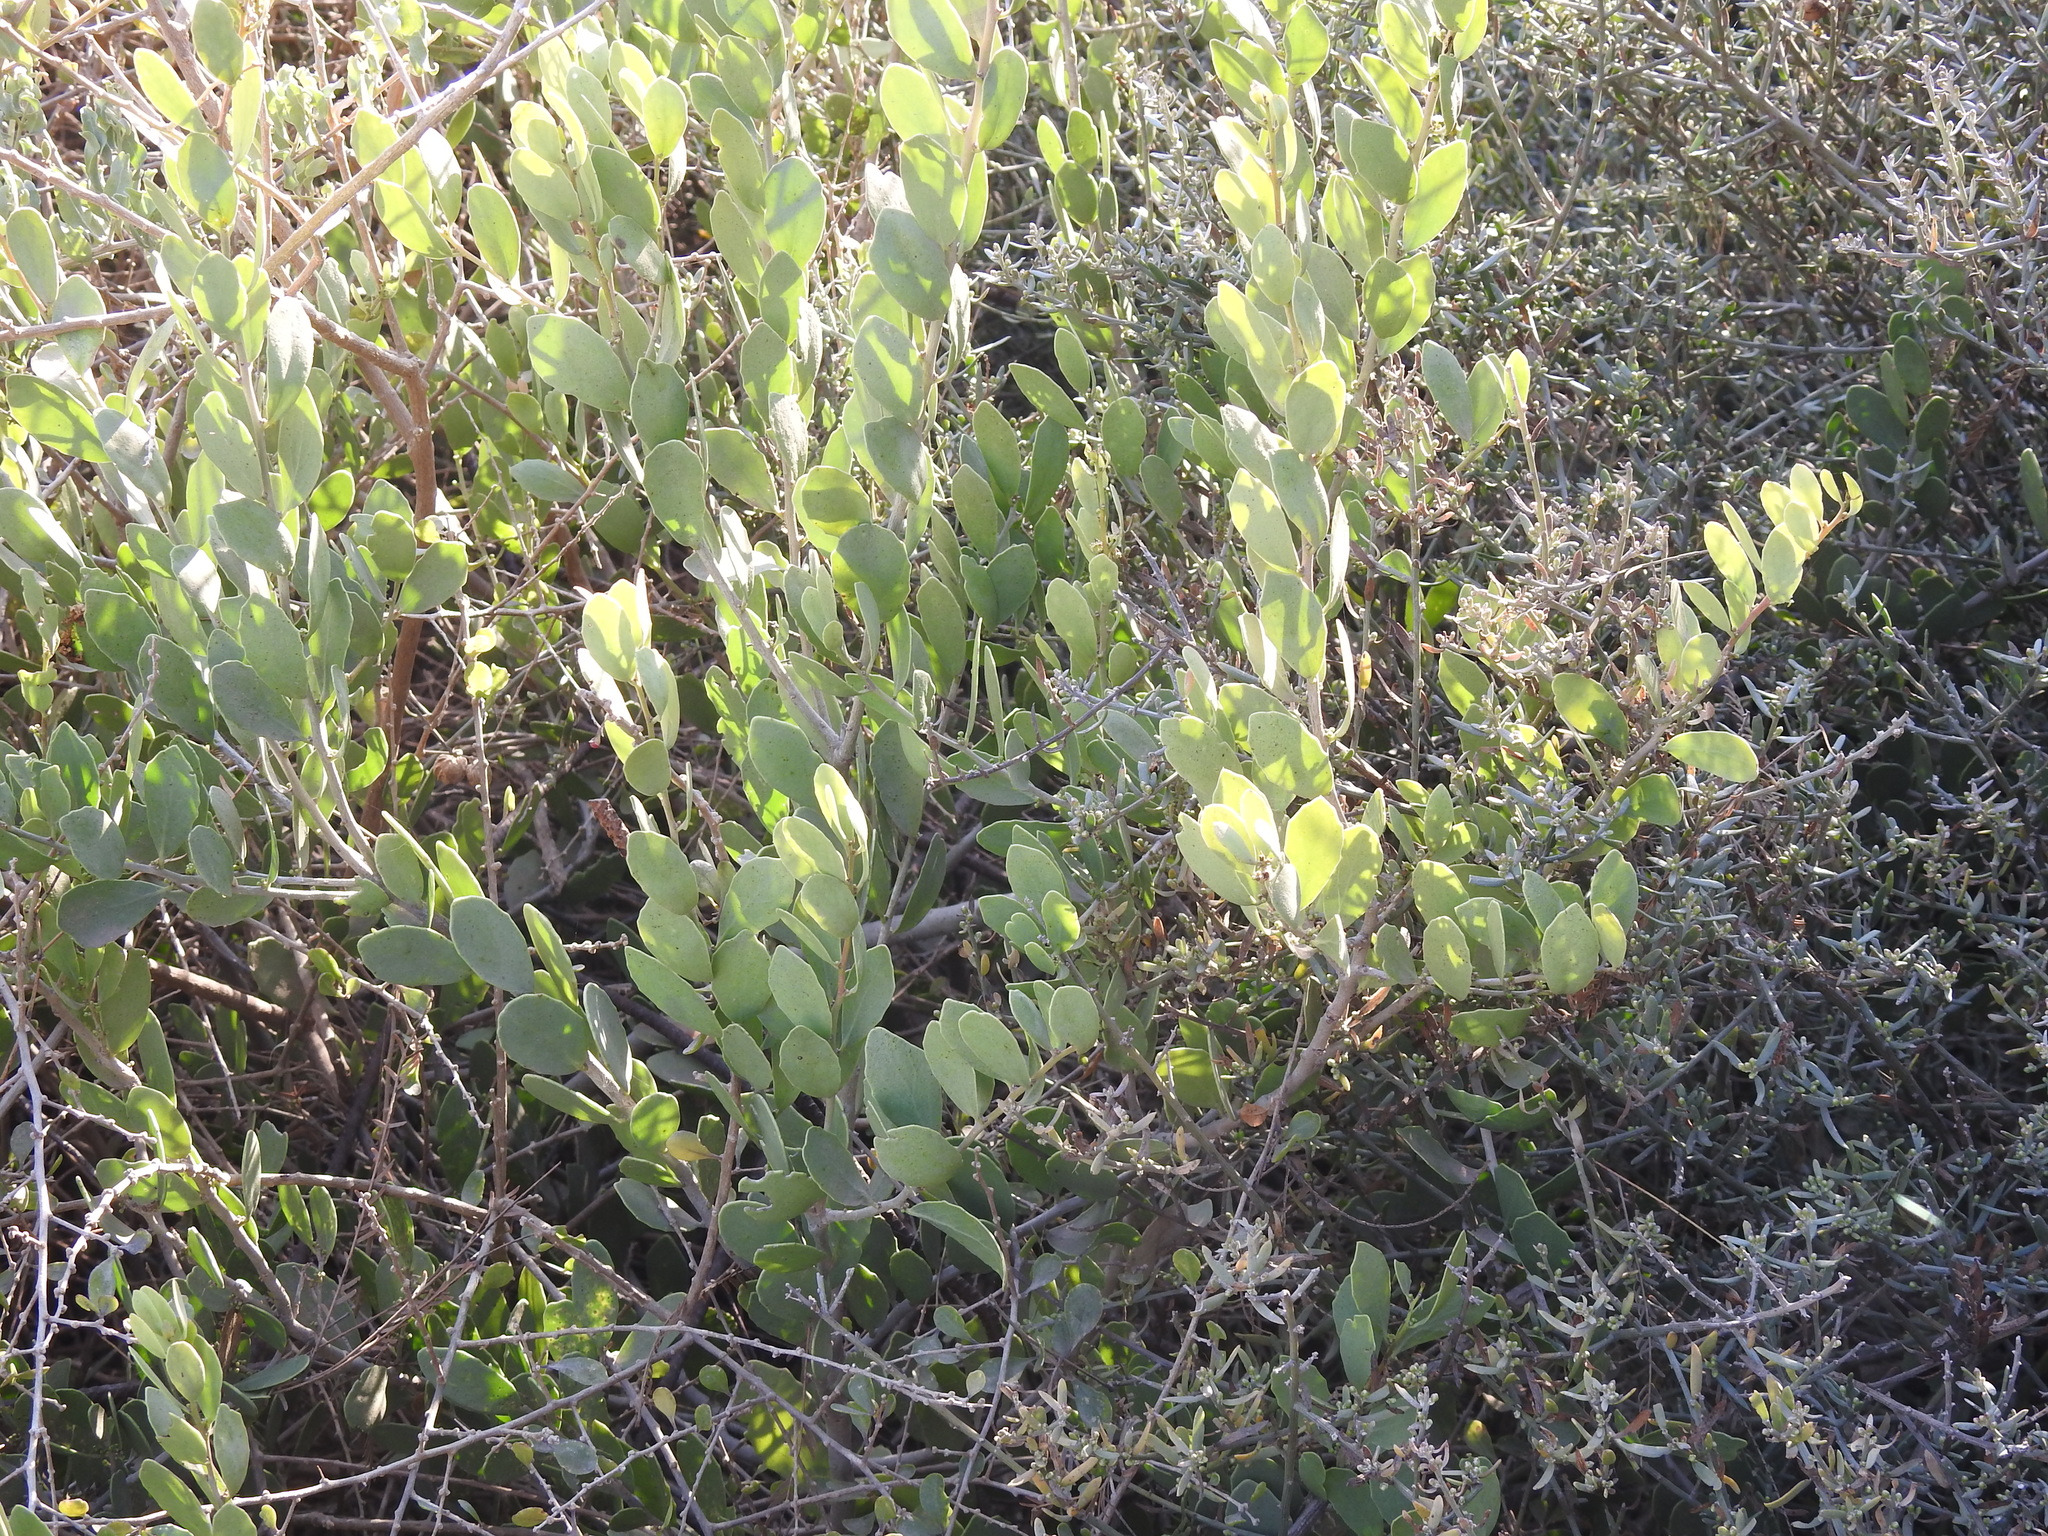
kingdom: Plantae
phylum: Tracheophyta
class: Magnoliopsida
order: Celastrales
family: Celastraceae
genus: Tricerma
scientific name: Tricerma vitis-idaeum
